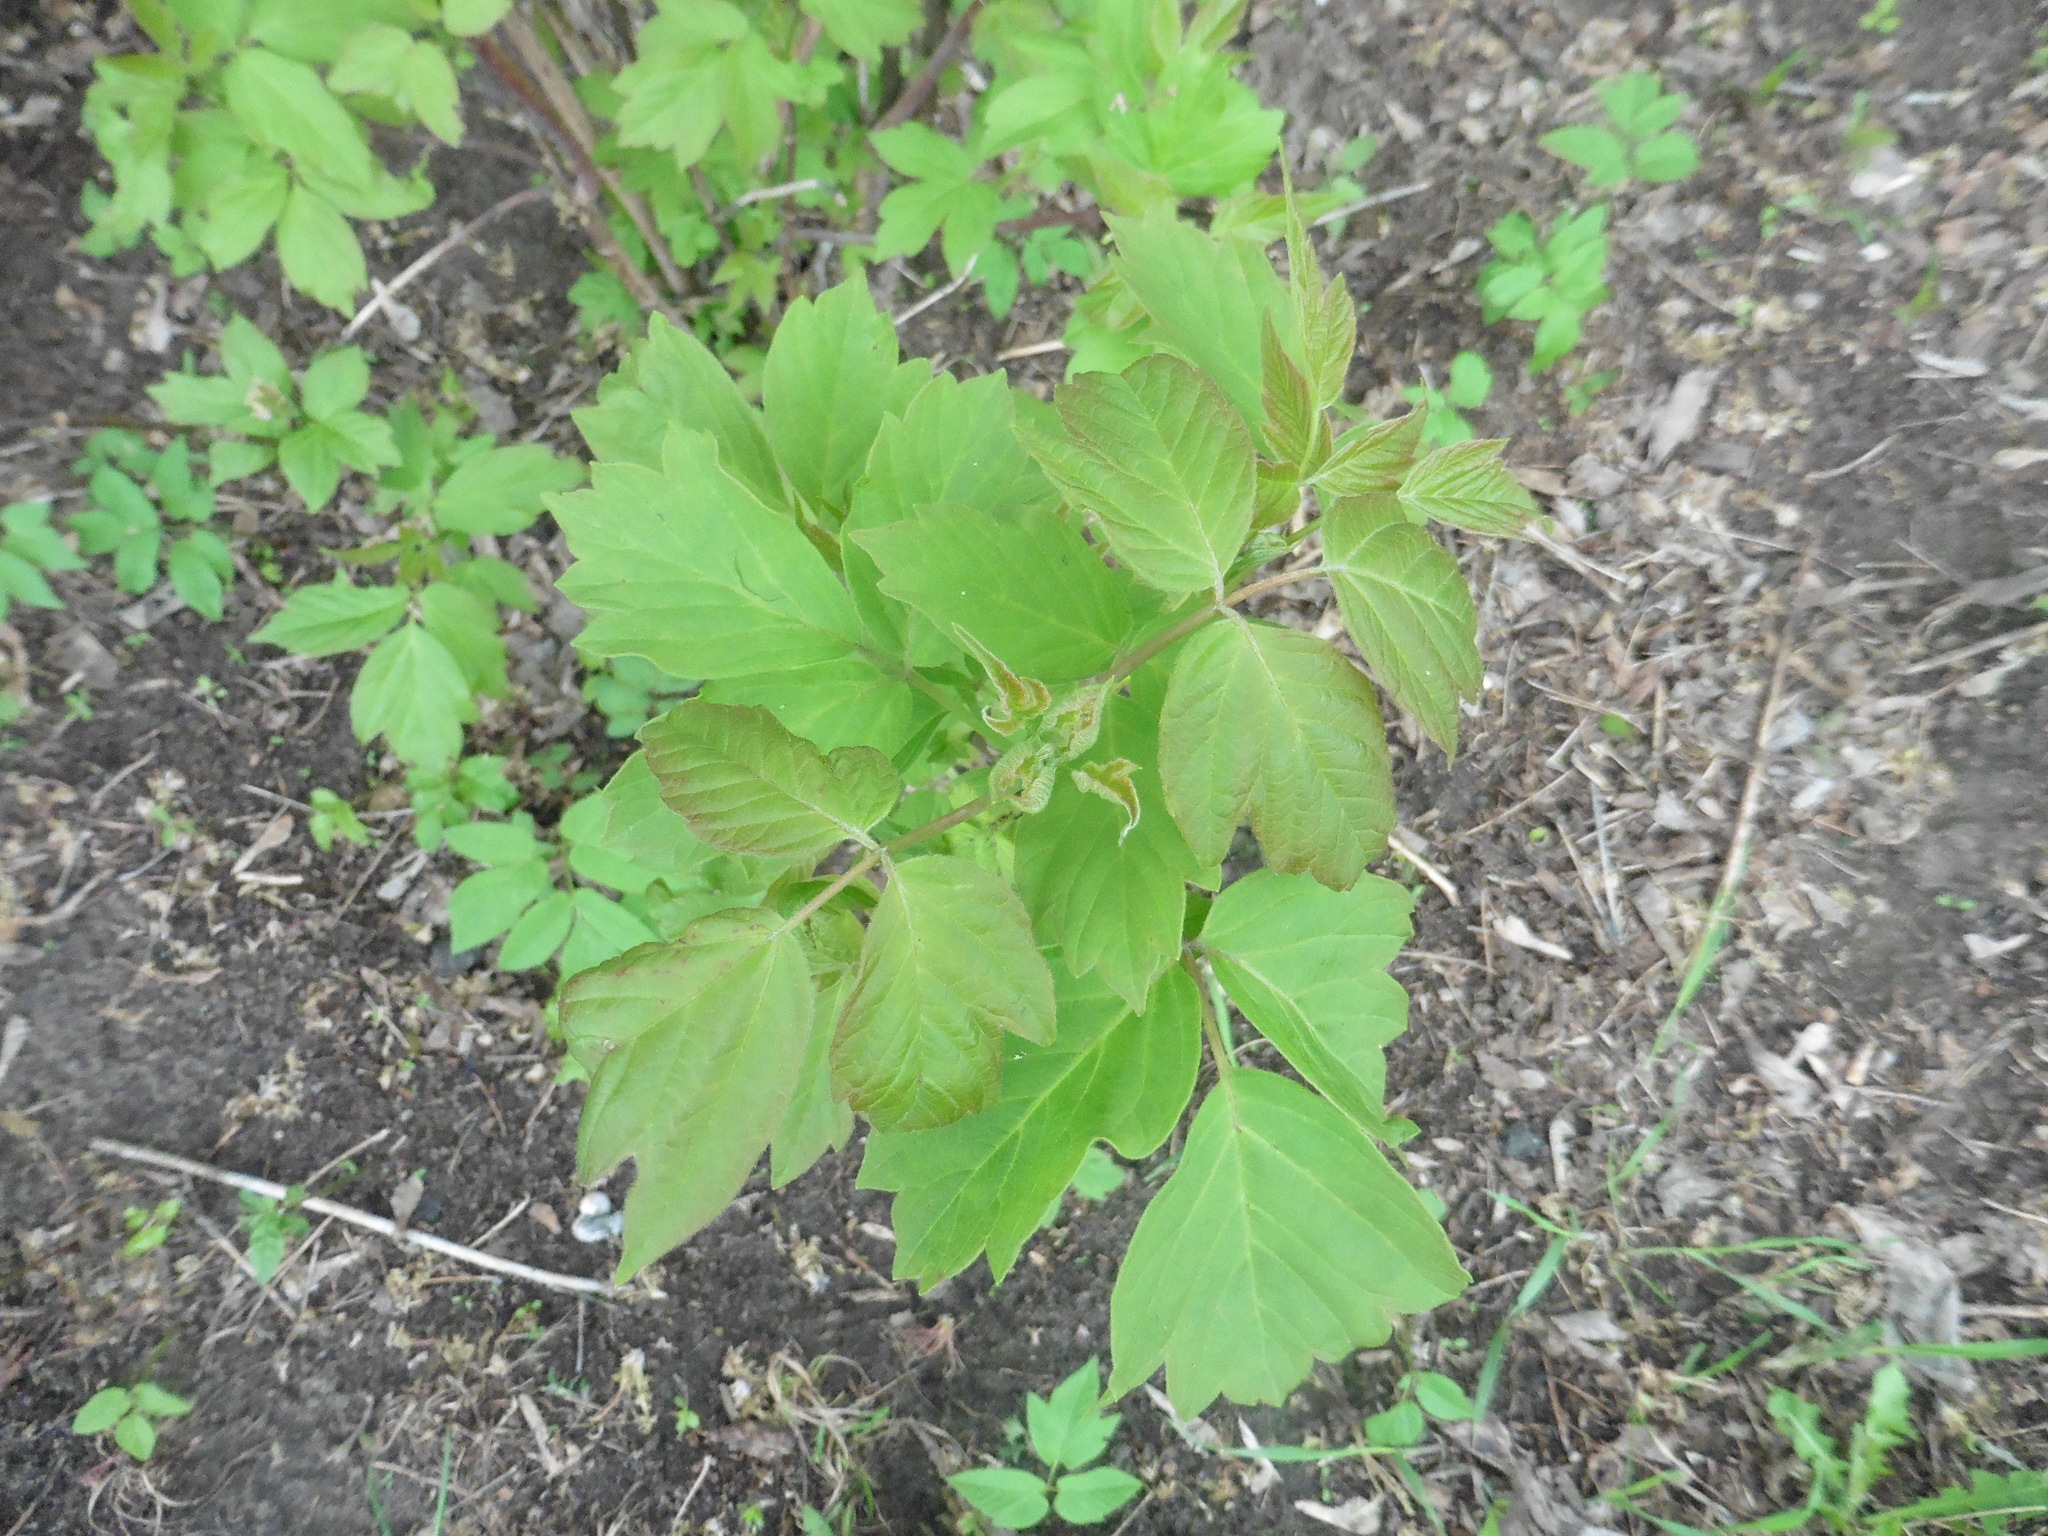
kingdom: Plantae
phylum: Tracheophyta
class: Magnoliopsida
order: Sapindales
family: Sapindaceae
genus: Acer
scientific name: Acer negundo
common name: Ashleaf maple
